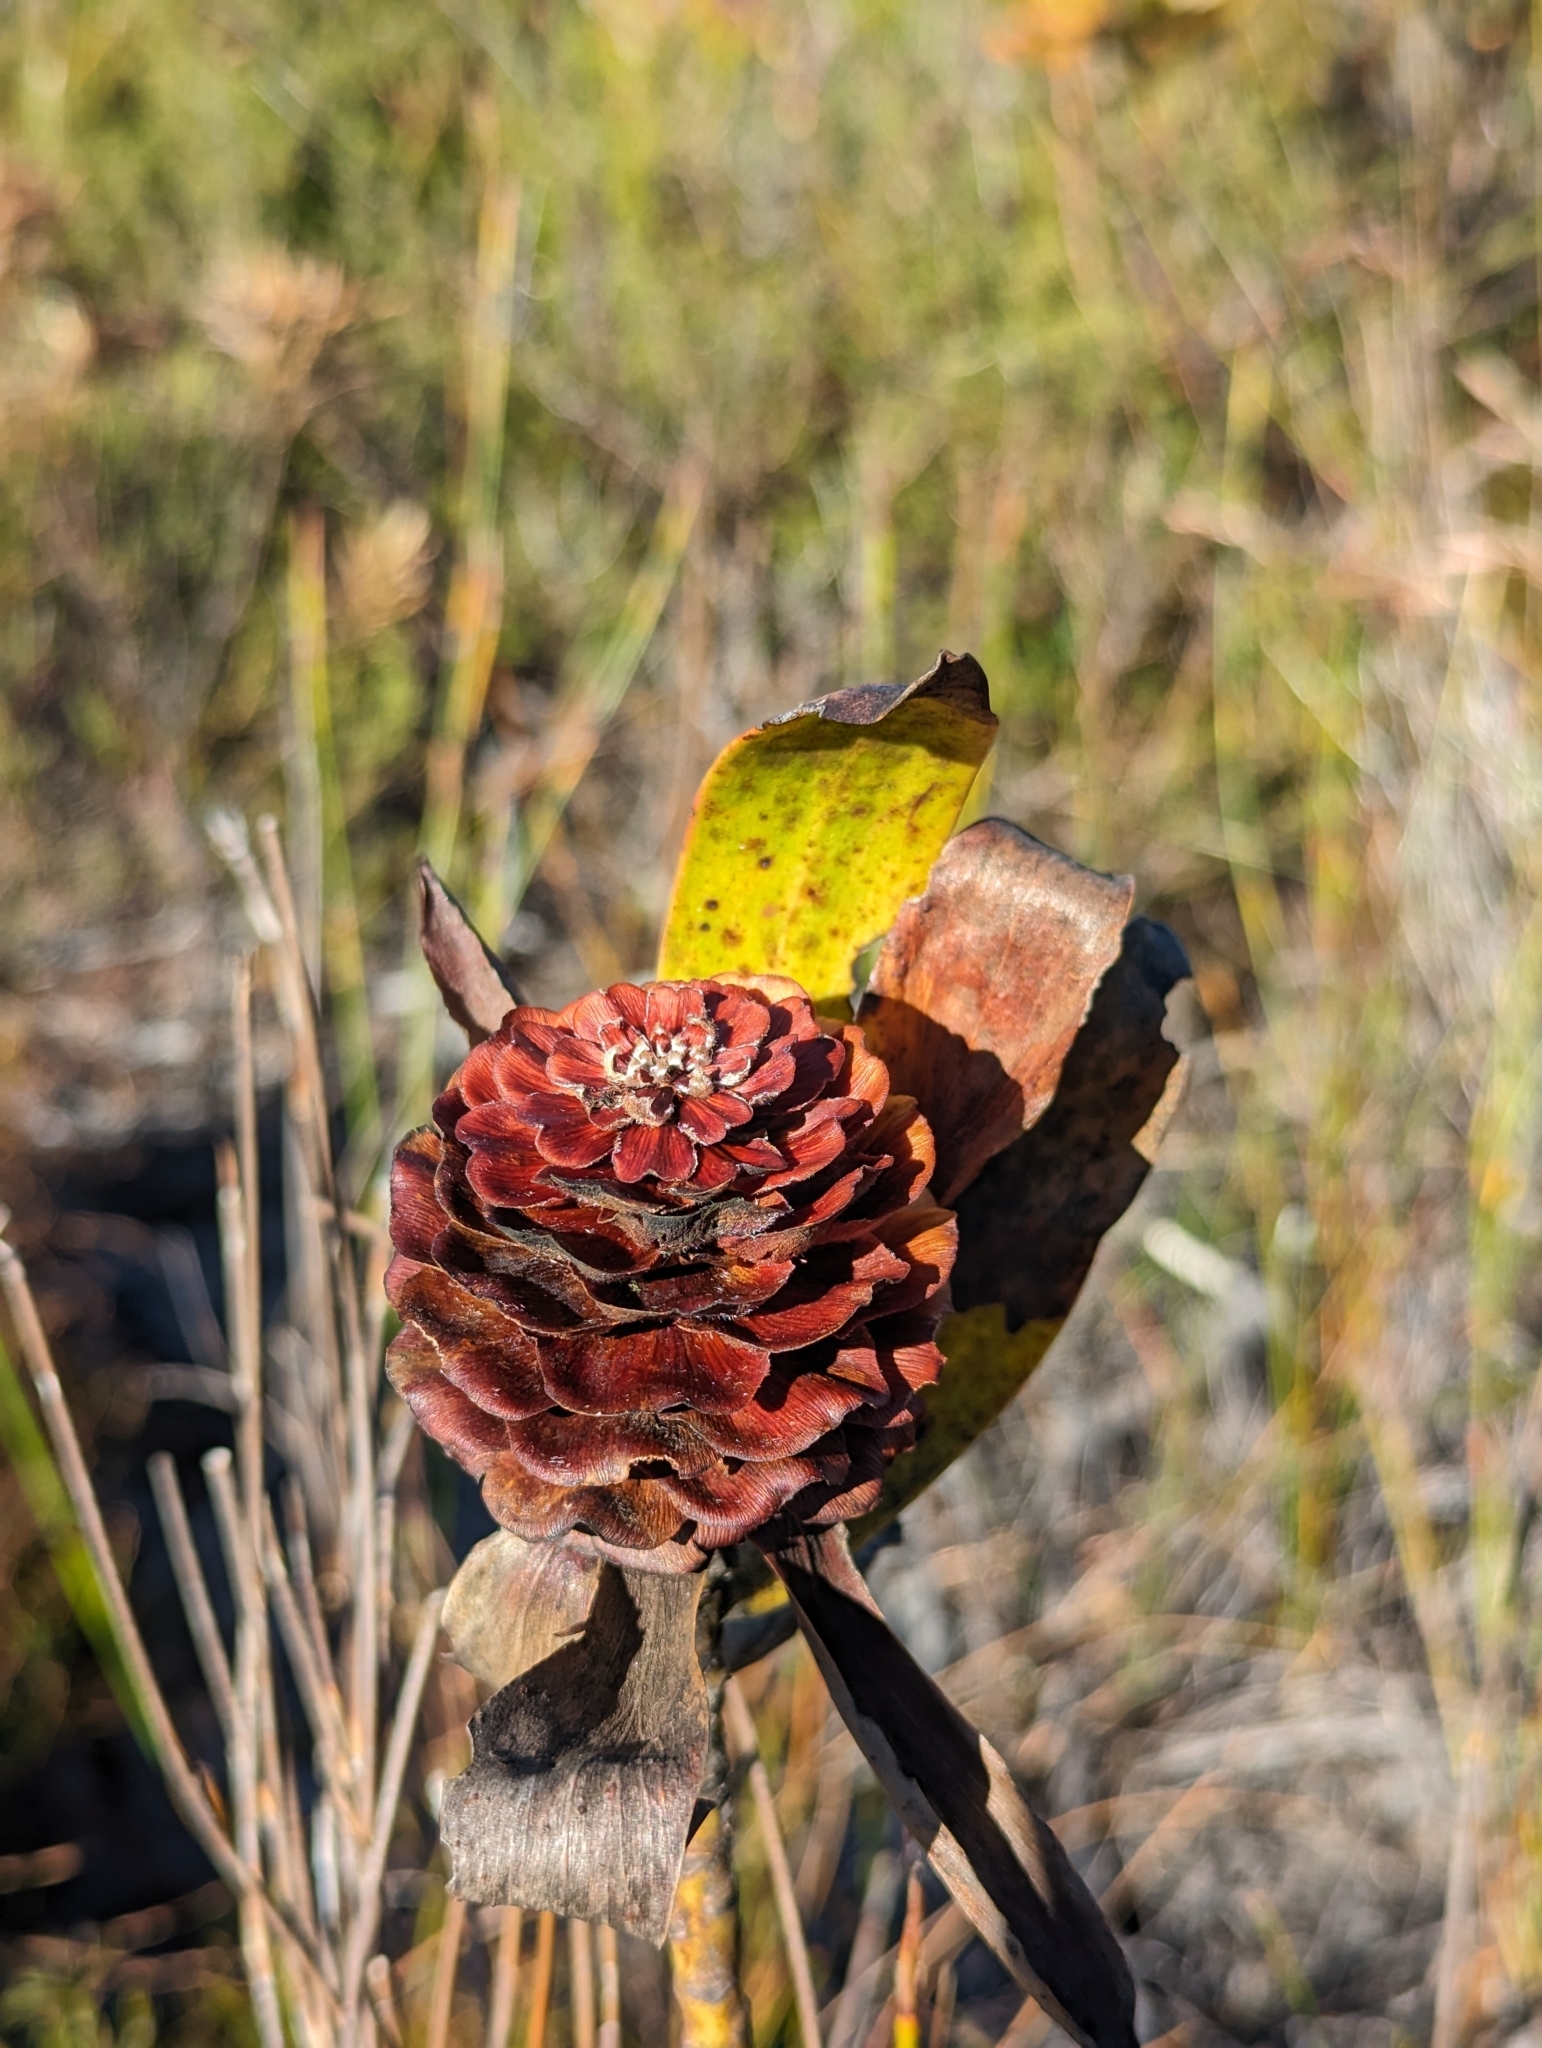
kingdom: Plantae
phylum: Tracheophyta
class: Magnoliopsida
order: Proteales
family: Proteaceae
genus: Leucadendron
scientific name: Leucadendron laureolum
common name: Golden sunshinebush
